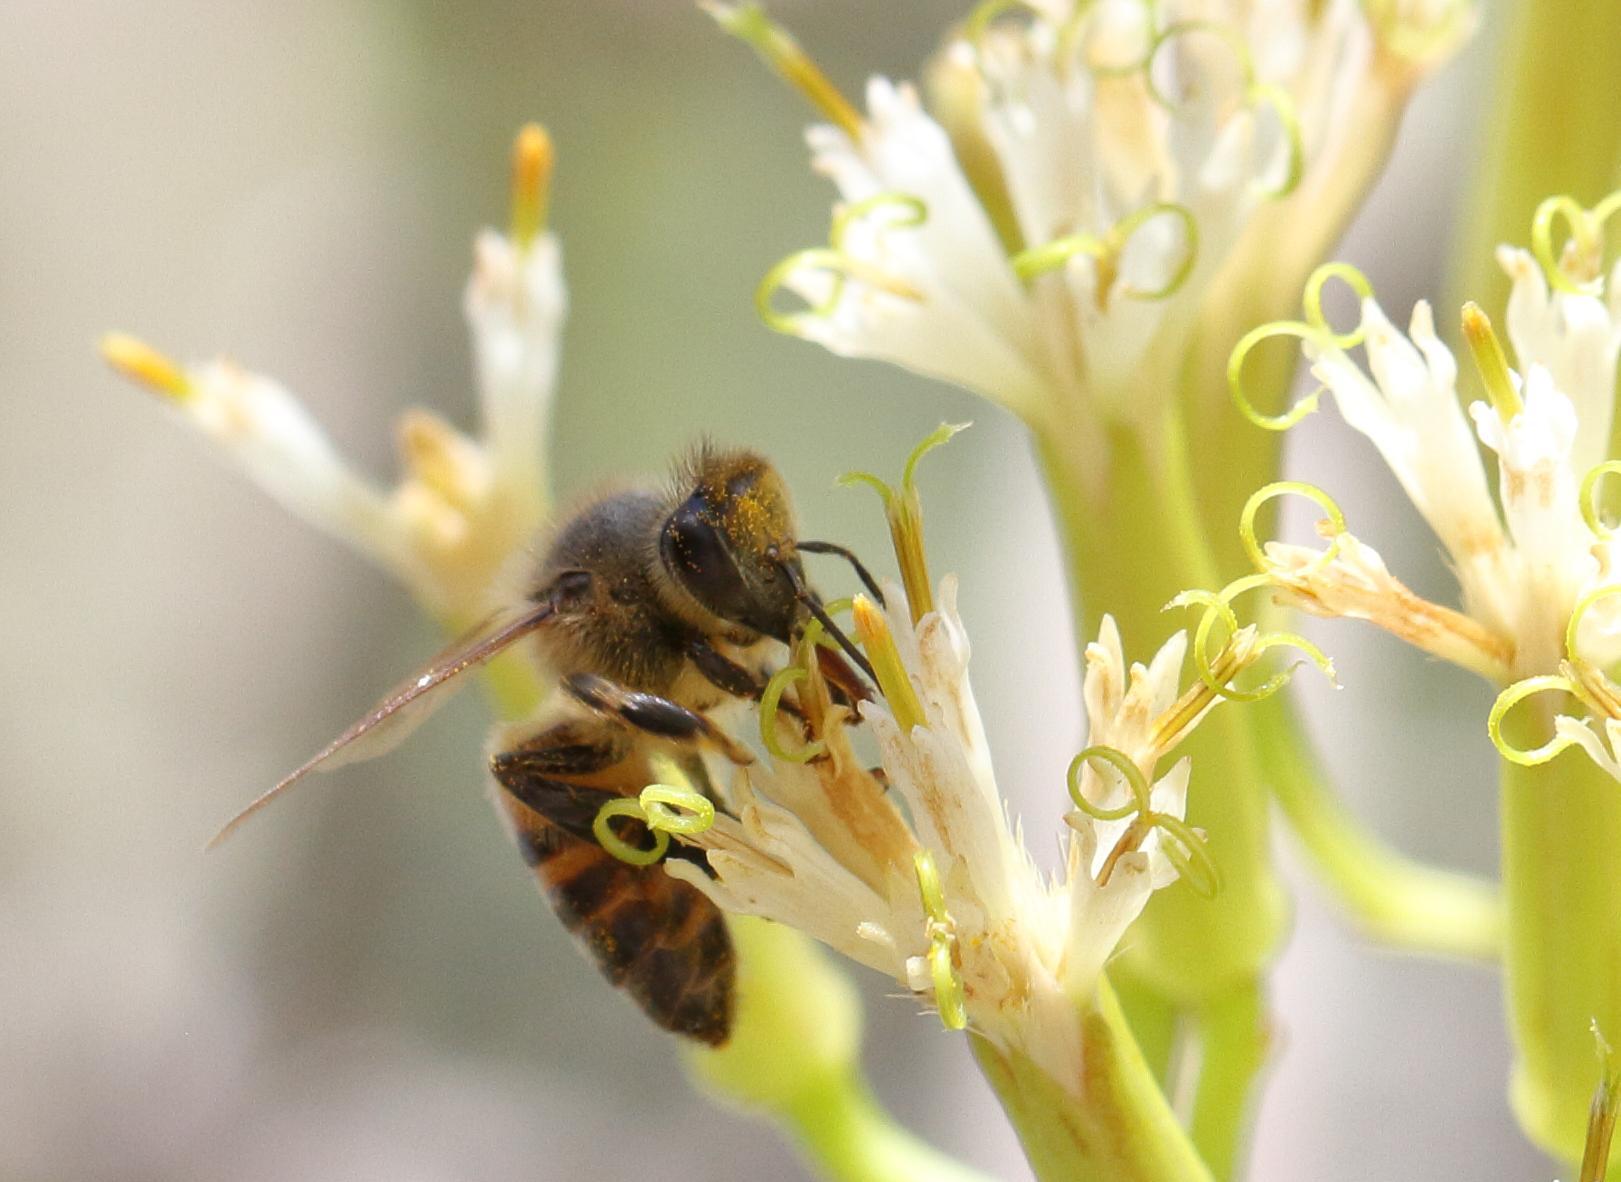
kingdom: Animalia
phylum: Arthropoda
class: Insecta
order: Hymenoptera
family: Apidae
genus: Apis
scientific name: Apis mellifera
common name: Honey bee
